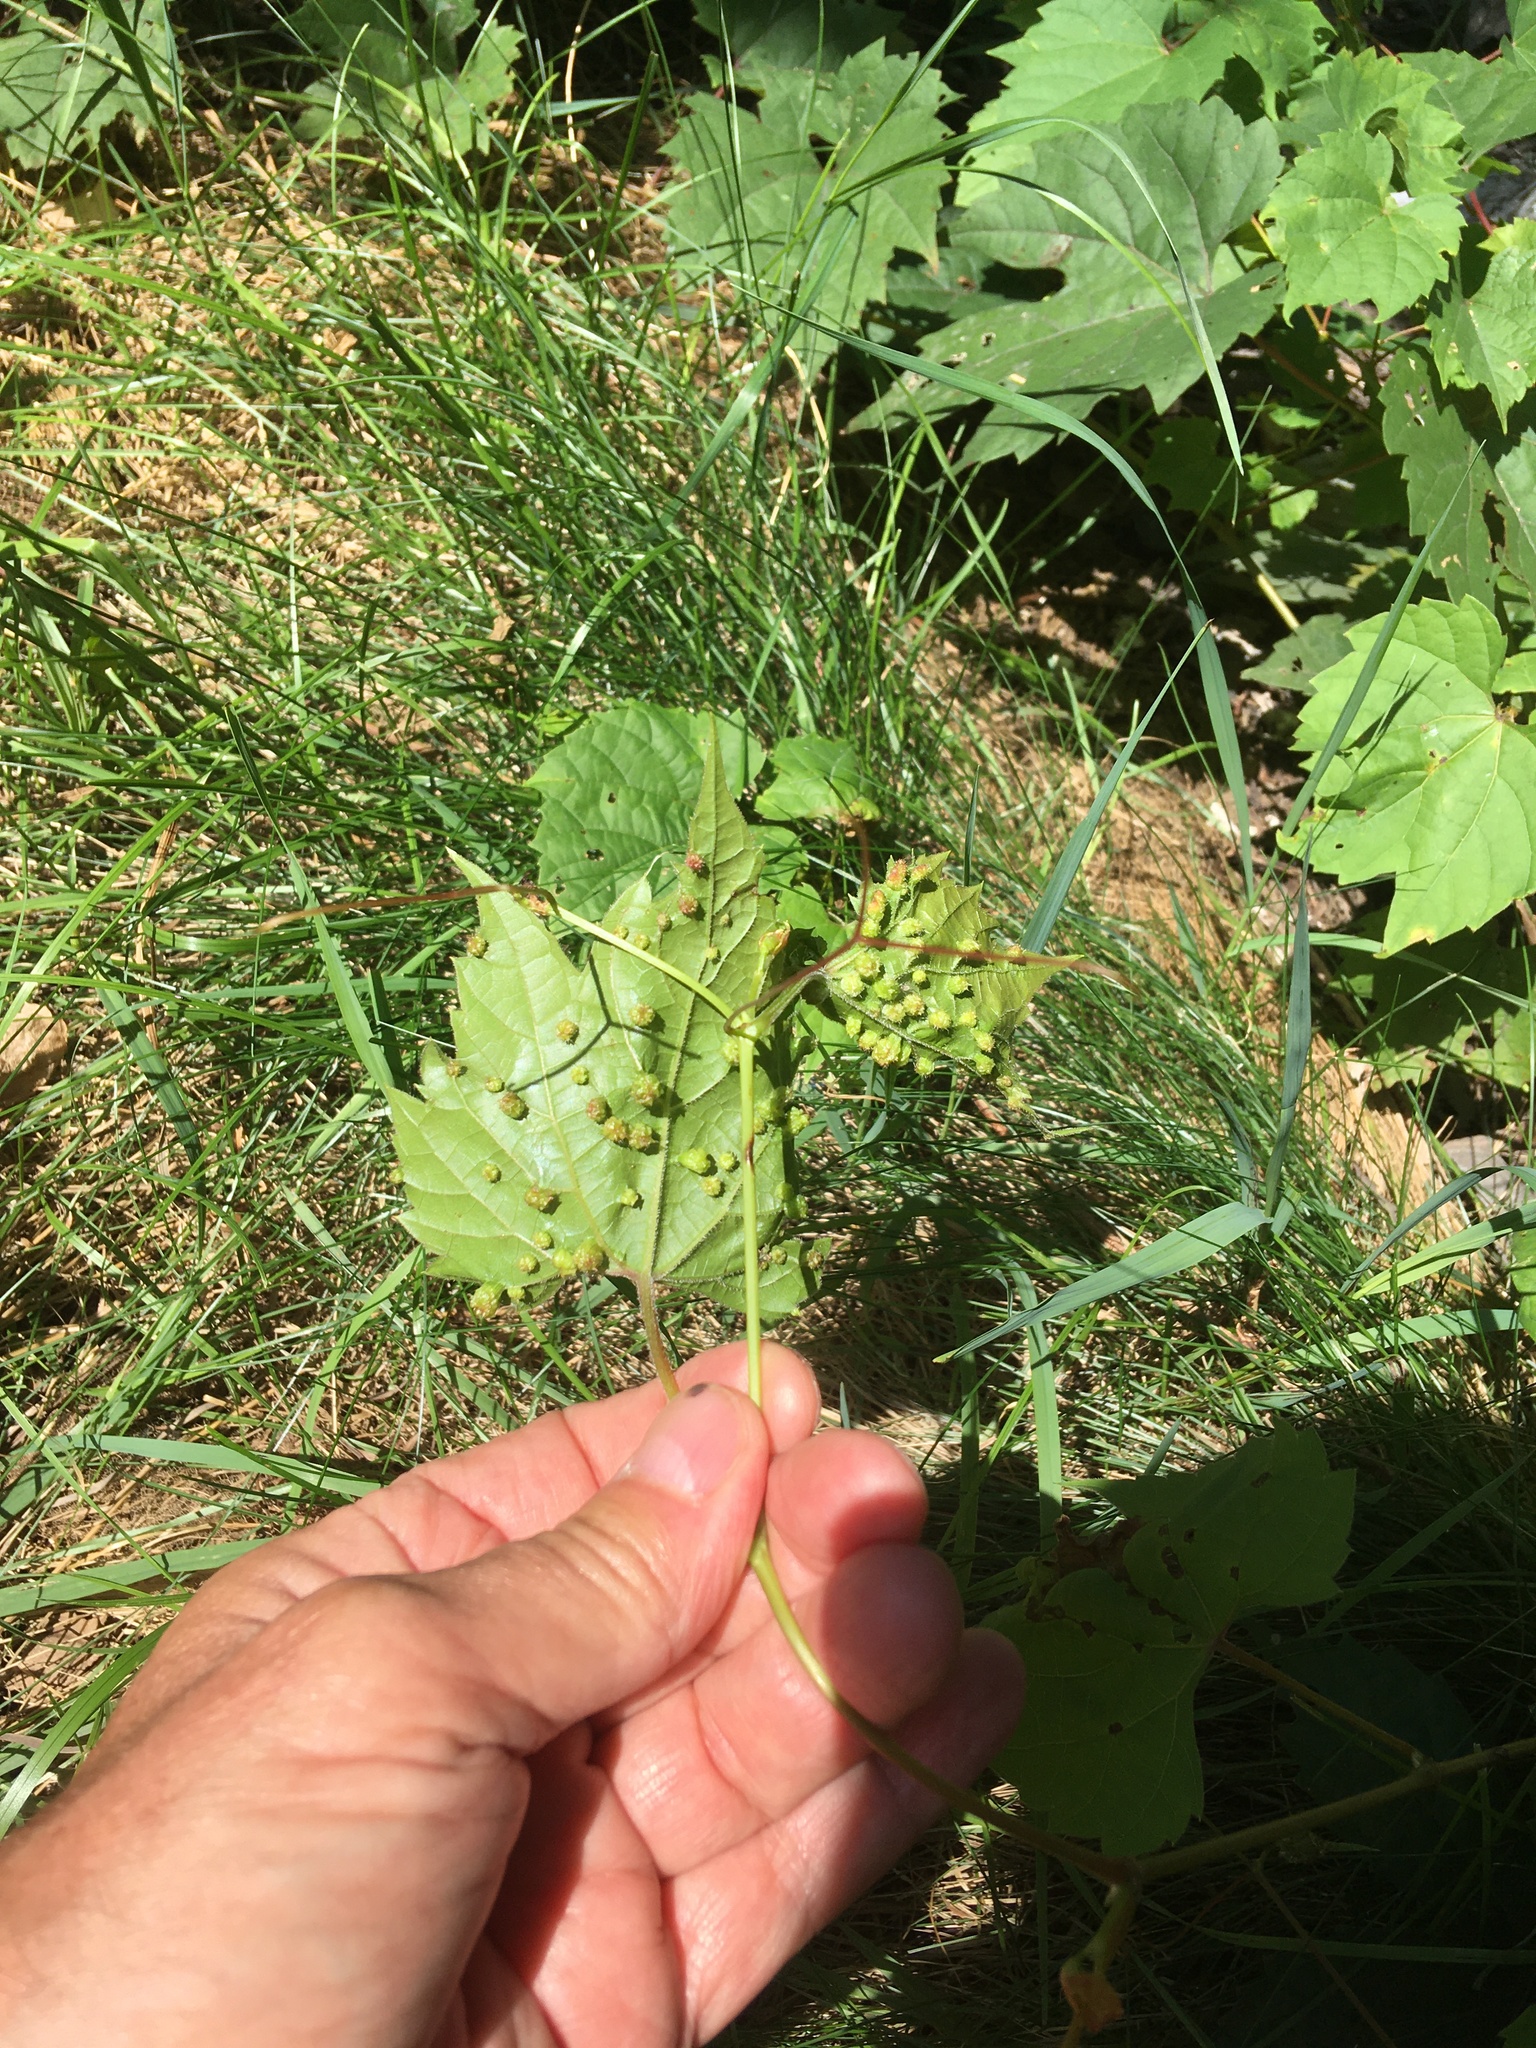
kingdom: Animalia
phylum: Arthropoda
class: Insecta
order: Hemiptera
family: Phylloxeridae
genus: Daktulosphaira
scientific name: Daktulosphaira vitifoliae
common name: Grape phylloxera
